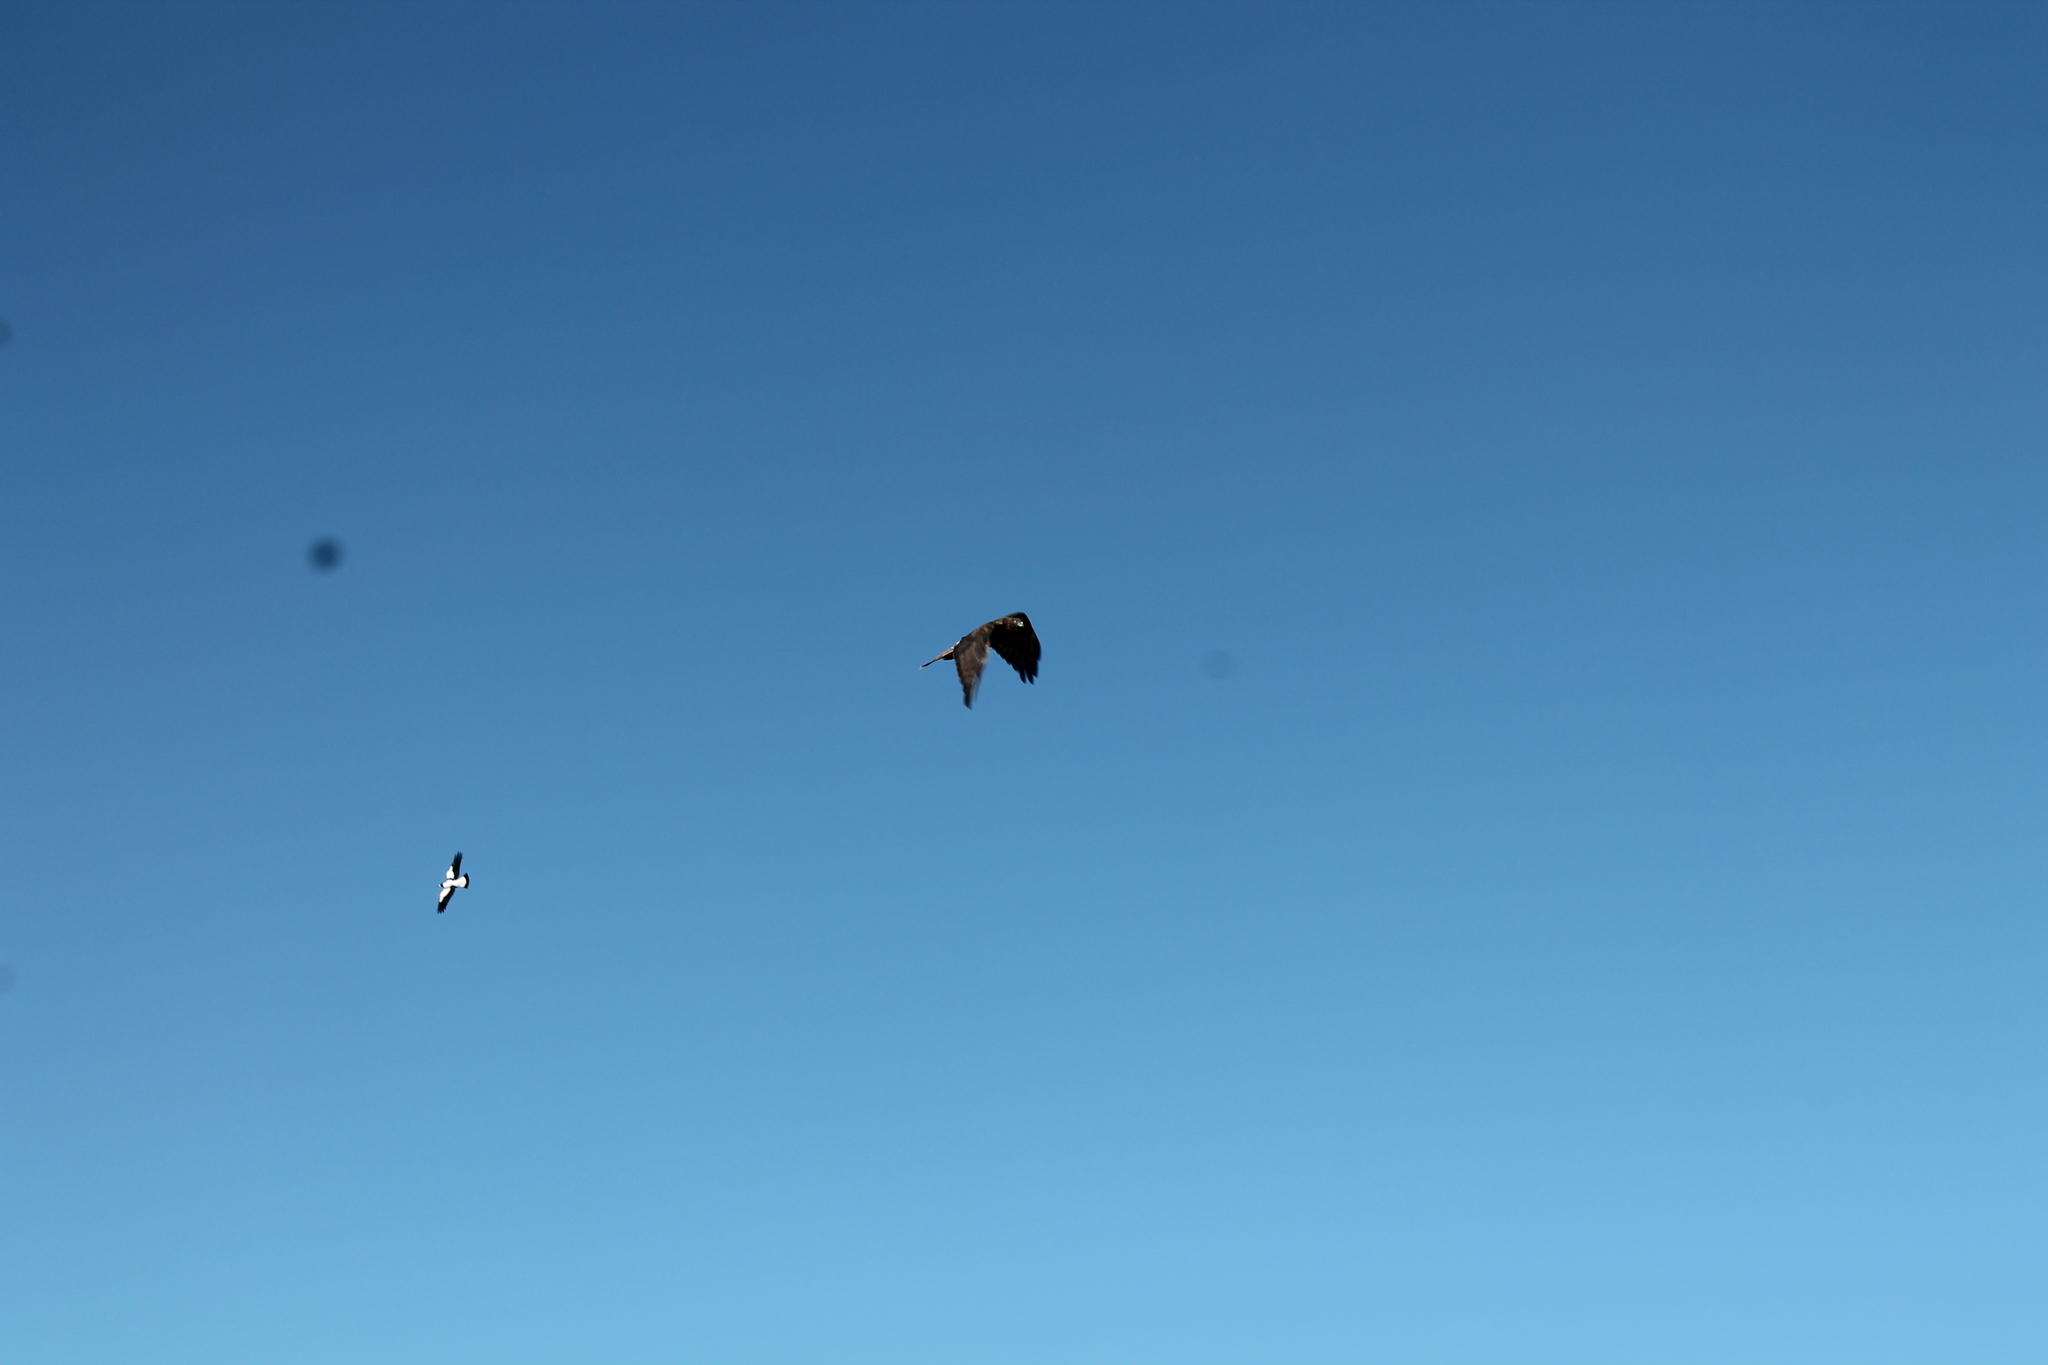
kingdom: Animalia
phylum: Chordata
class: Aves
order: Accipitriformes
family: Accipitridae
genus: Circus
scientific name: Circus approximans
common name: Swamp harrier
